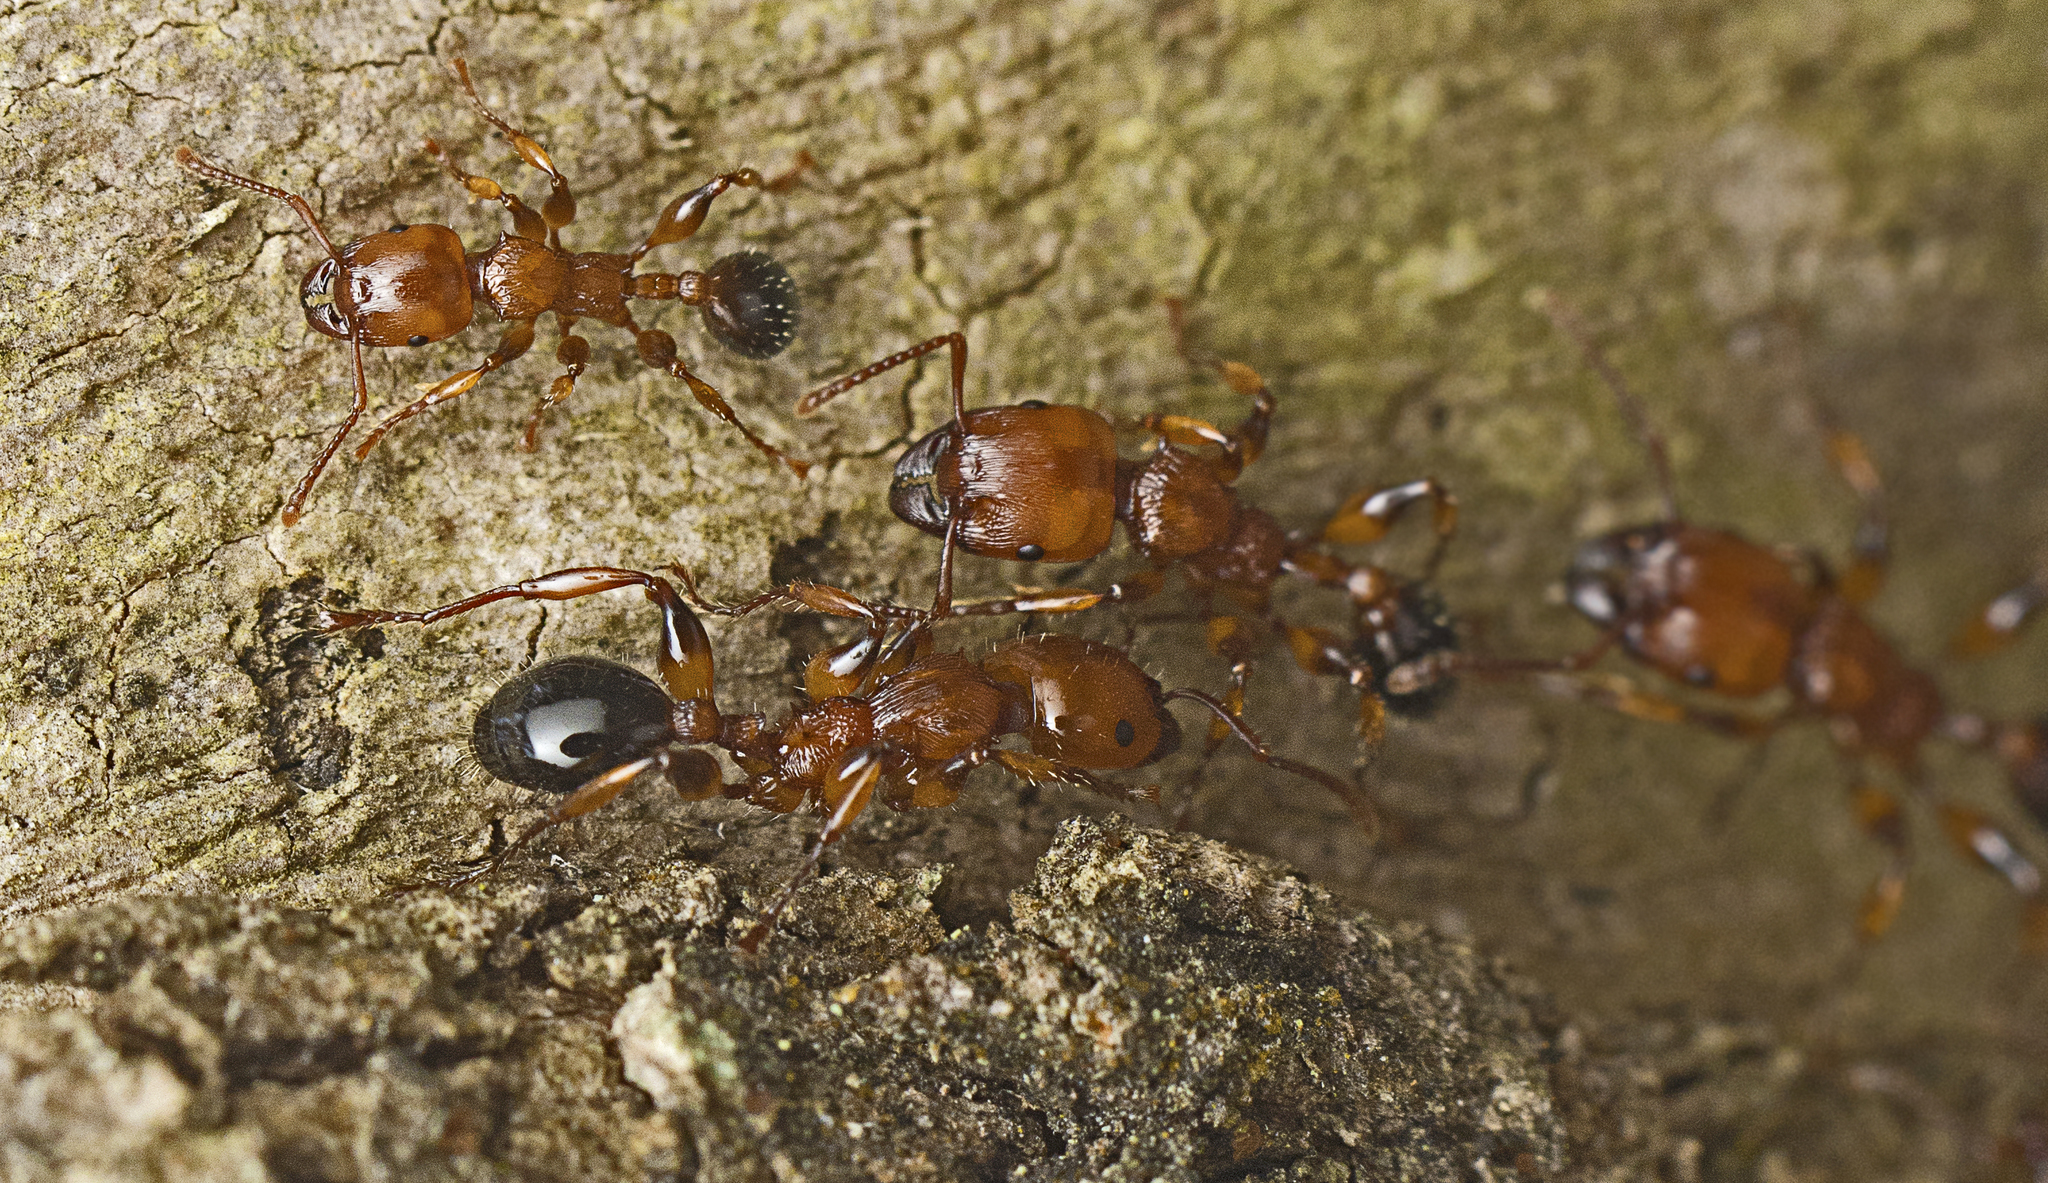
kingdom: Animalia
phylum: Arthropoda
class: Insecta
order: Hymenoptera
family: Formicidae
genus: Podomyrma
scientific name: Podomyrma gratiosa
